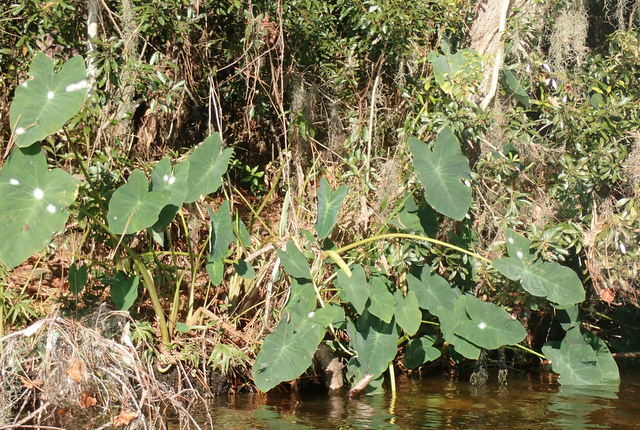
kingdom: Plantae
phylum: Tracheophyta
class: Liliopsida
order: Alismatales
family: Araceae
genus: Colocasia
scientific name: Colocasia esculenta
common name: Taro
